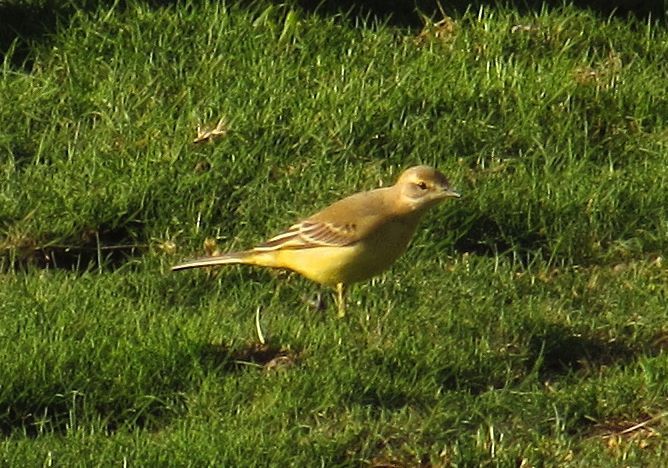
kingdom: Animalia
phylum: Chordata
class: Aves
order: Passeriformes
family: Motacillidae
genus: Motacilla
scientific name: Motacilla flava
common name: Western yellow wagtail
